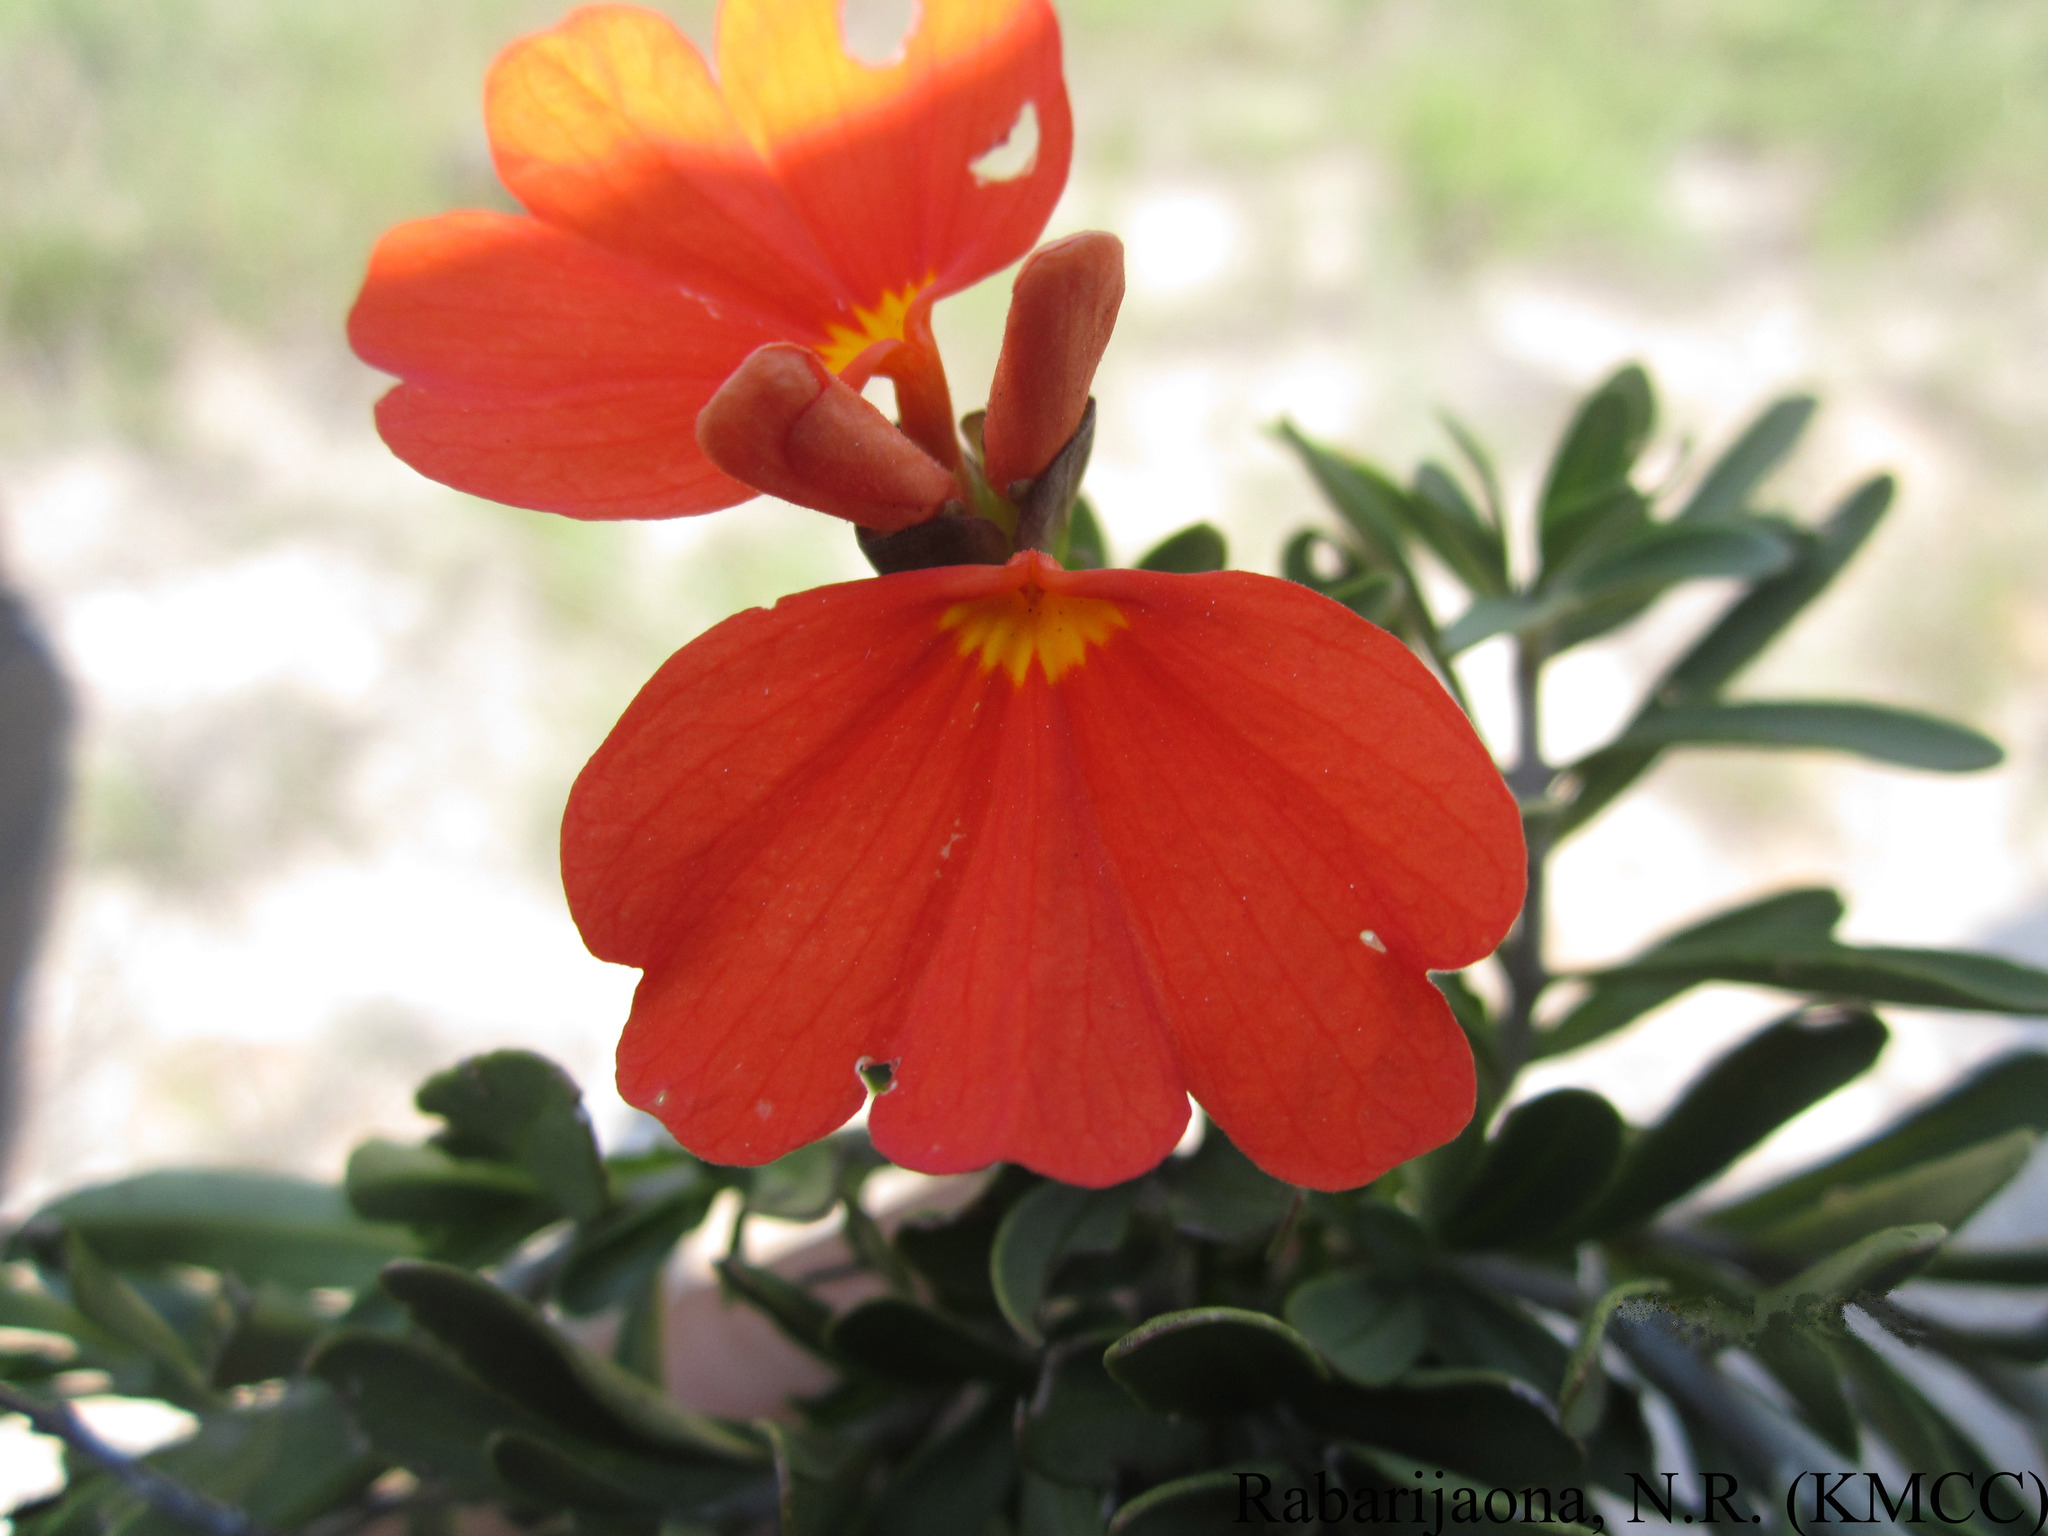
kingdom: Plantae
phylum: Tracheophyta
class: Magnoliopsida
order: Lamiales
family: Acanthaceae
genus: Crossandra
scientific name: Crossandra grandidieri
